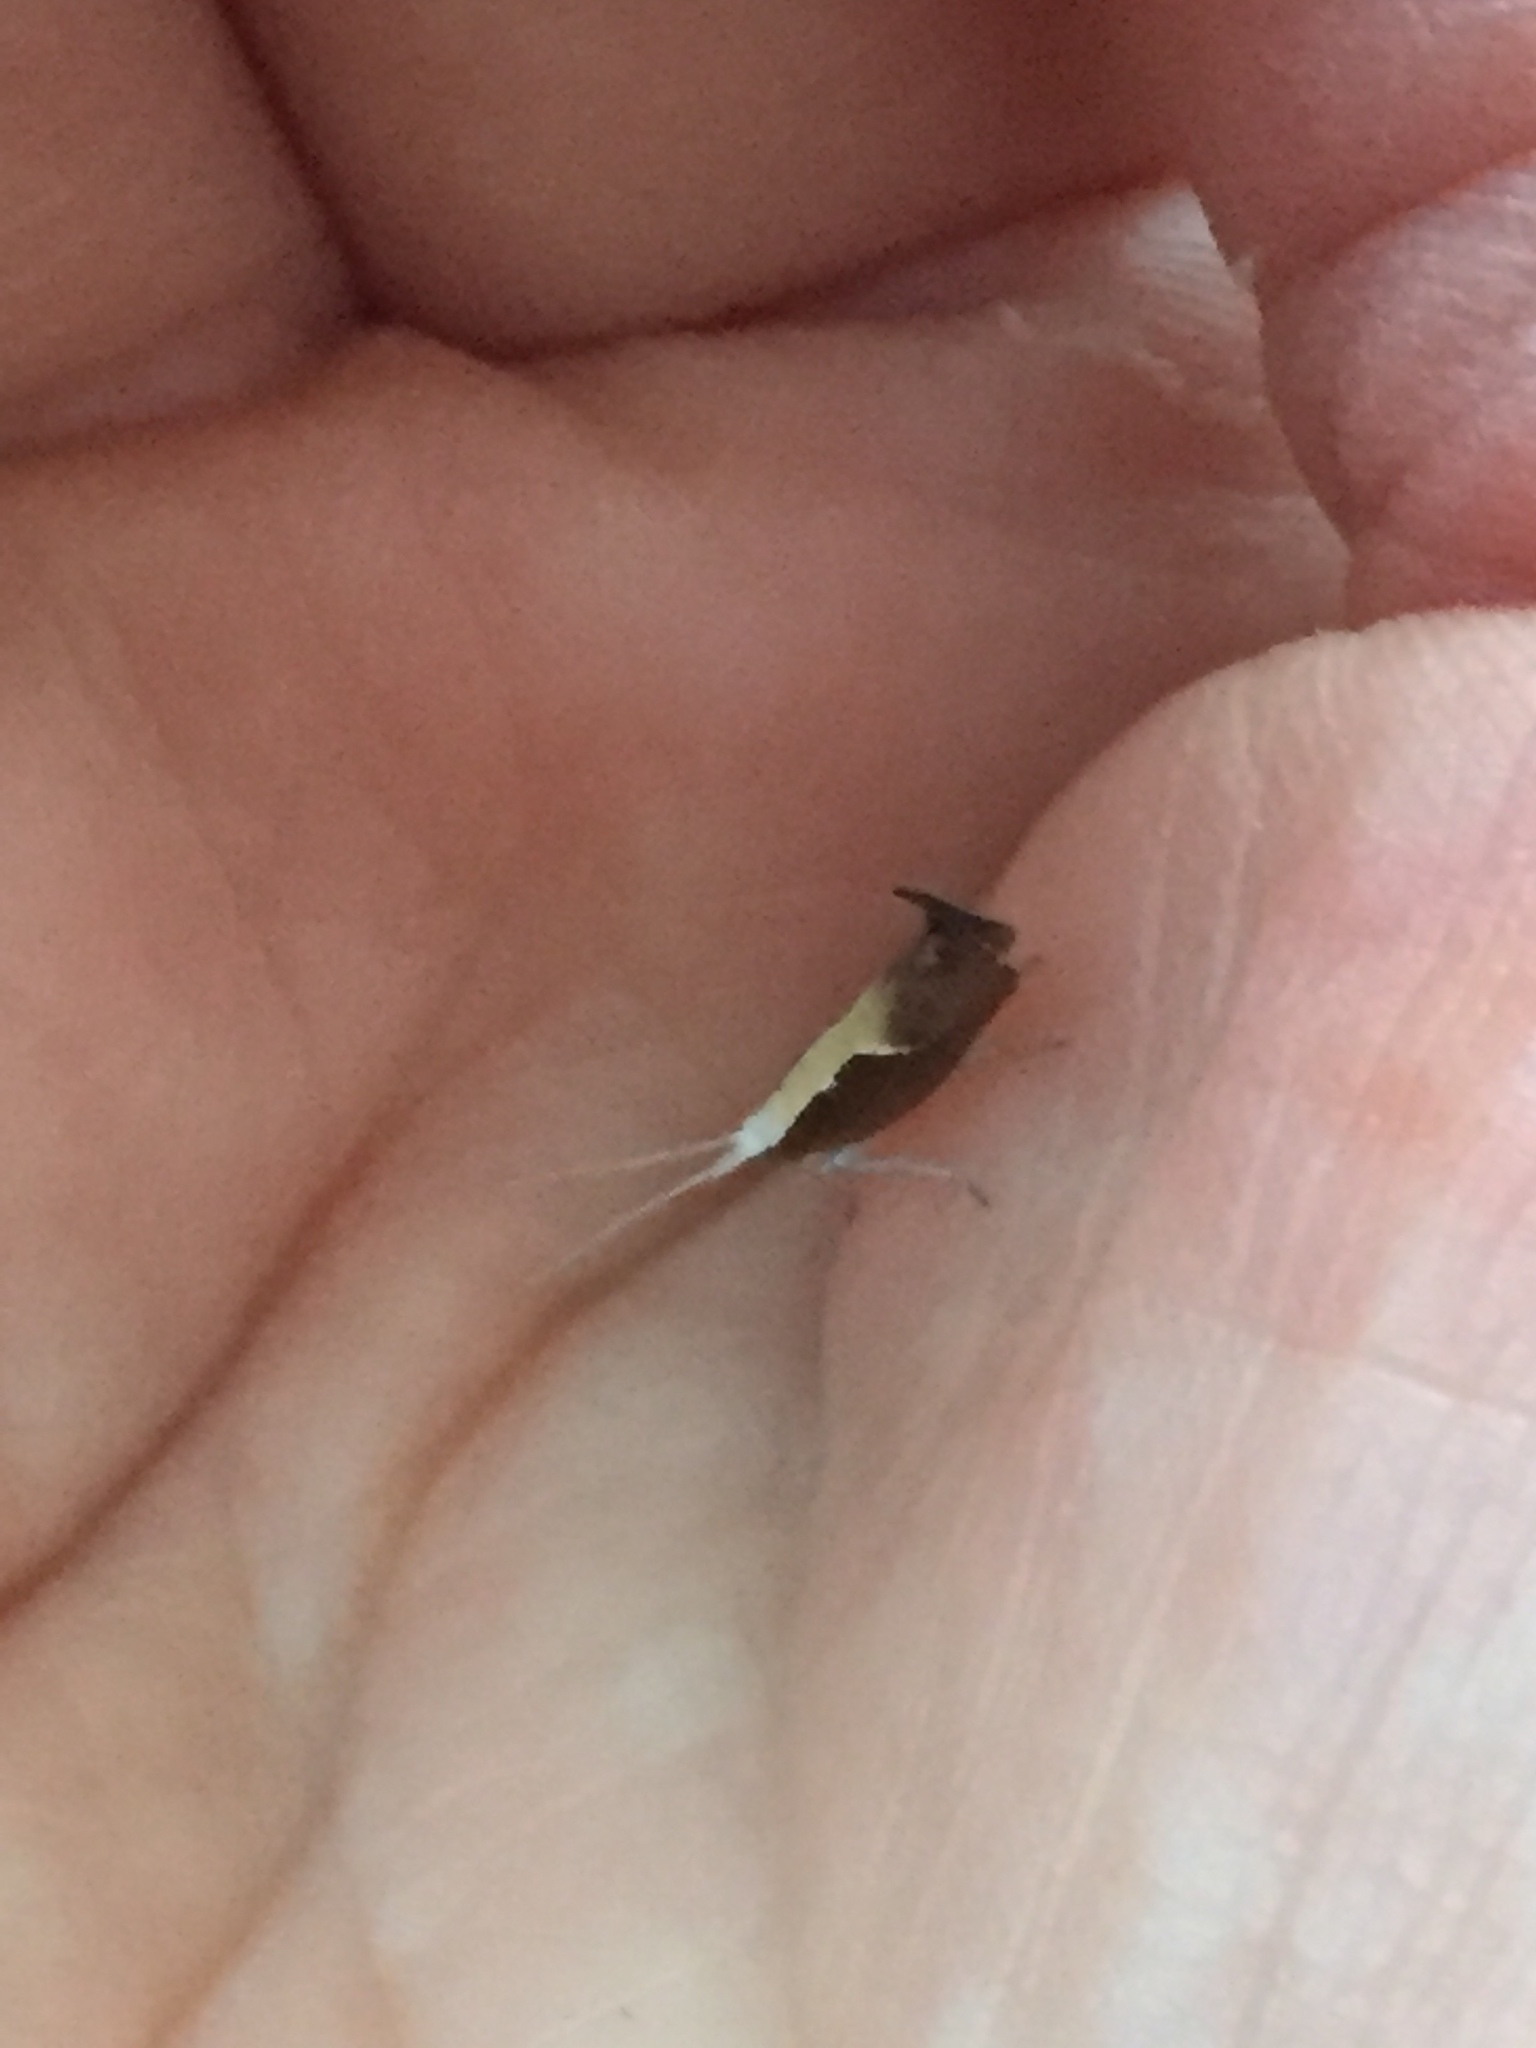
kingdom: Animalia
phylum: Arthropoda
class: Insecta
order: Lepidoptera
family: Ypsolophidae
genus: Ypsolopha
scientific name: Ypsolopha dentella
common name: Honeysuckle moth
